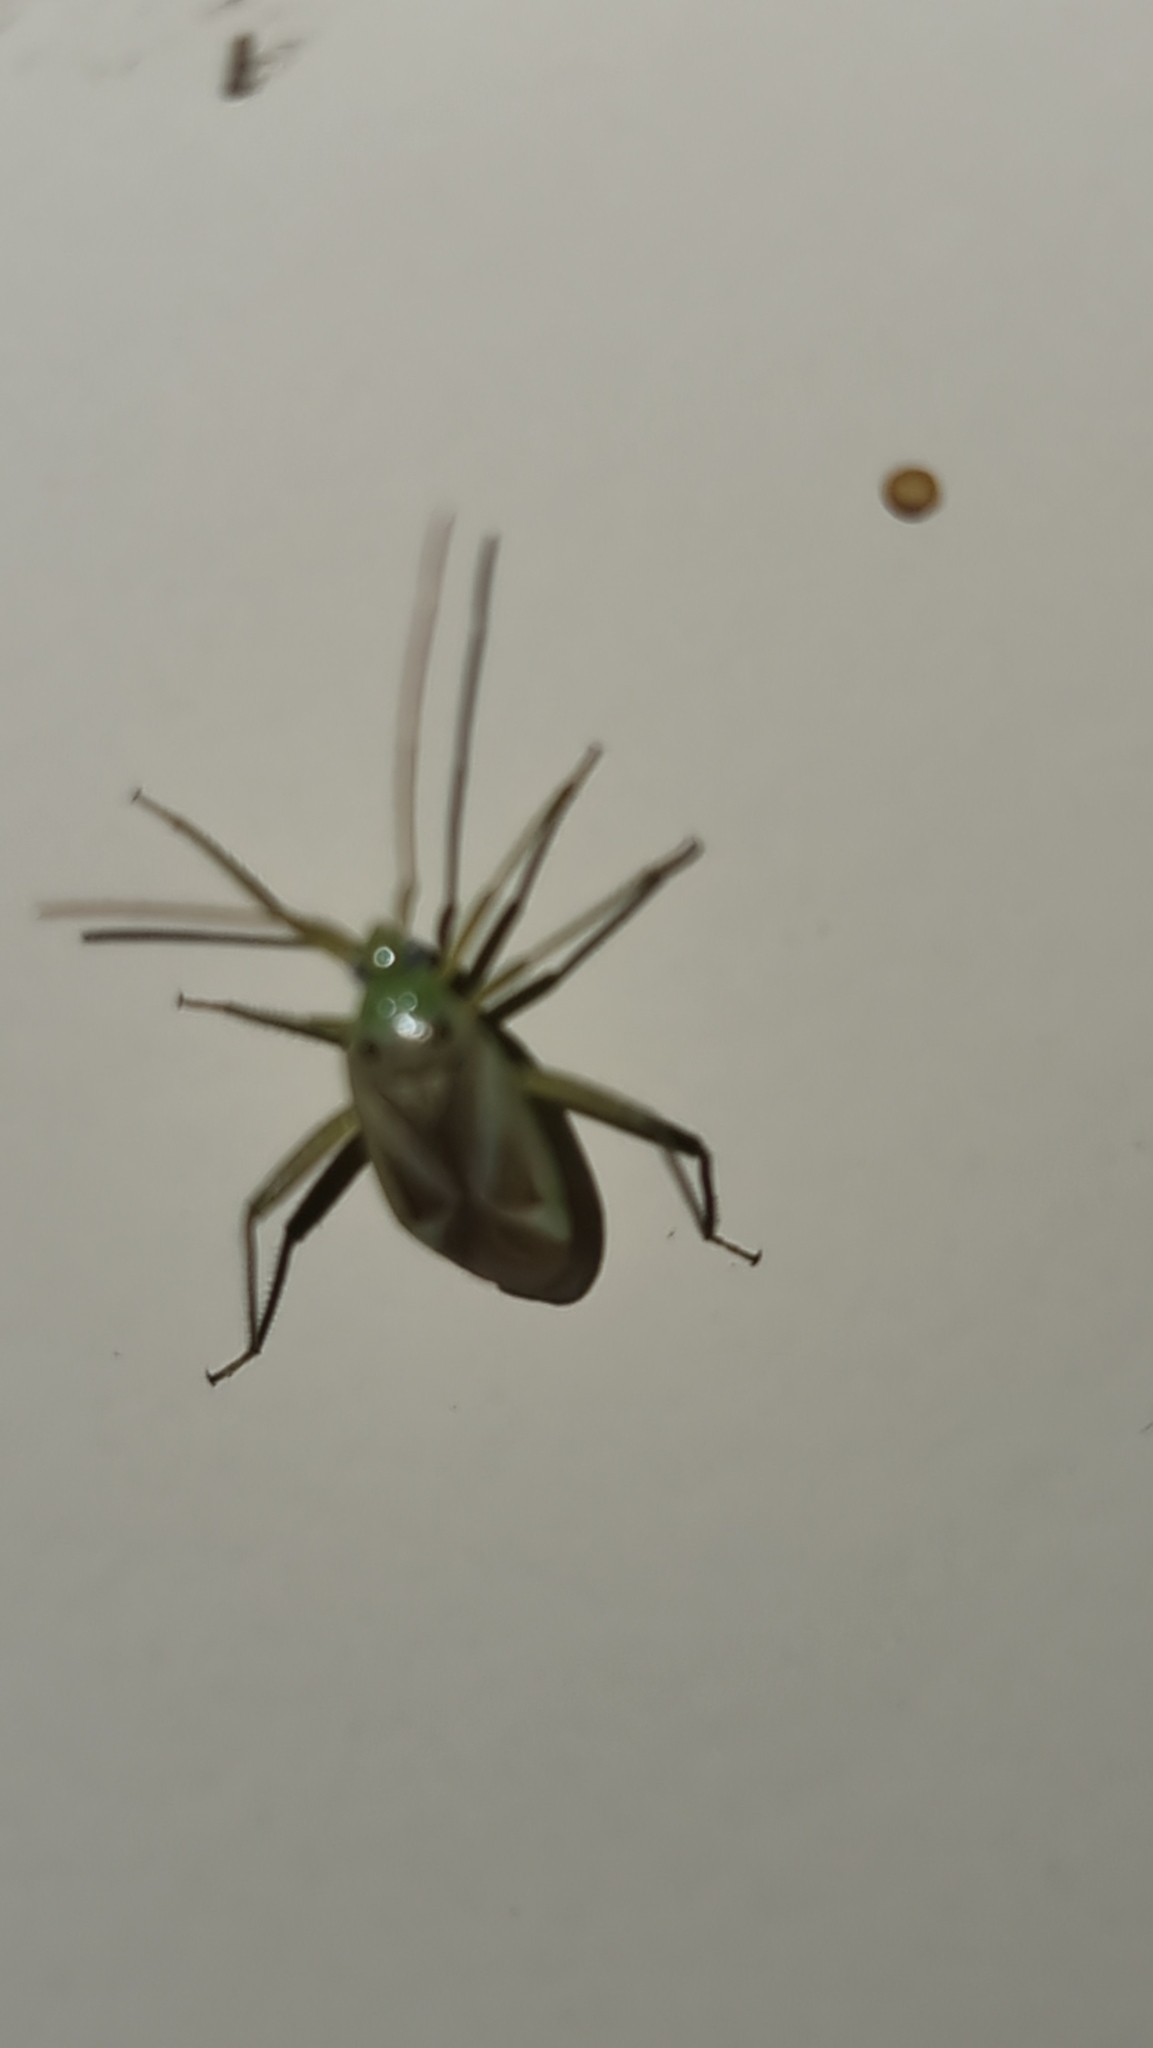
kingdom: Animalia
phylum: Arthropoda
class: Insecta
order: Hemiptera
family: Miridae
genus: Adelphocoris
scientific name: Adelphocoris lineolatus
